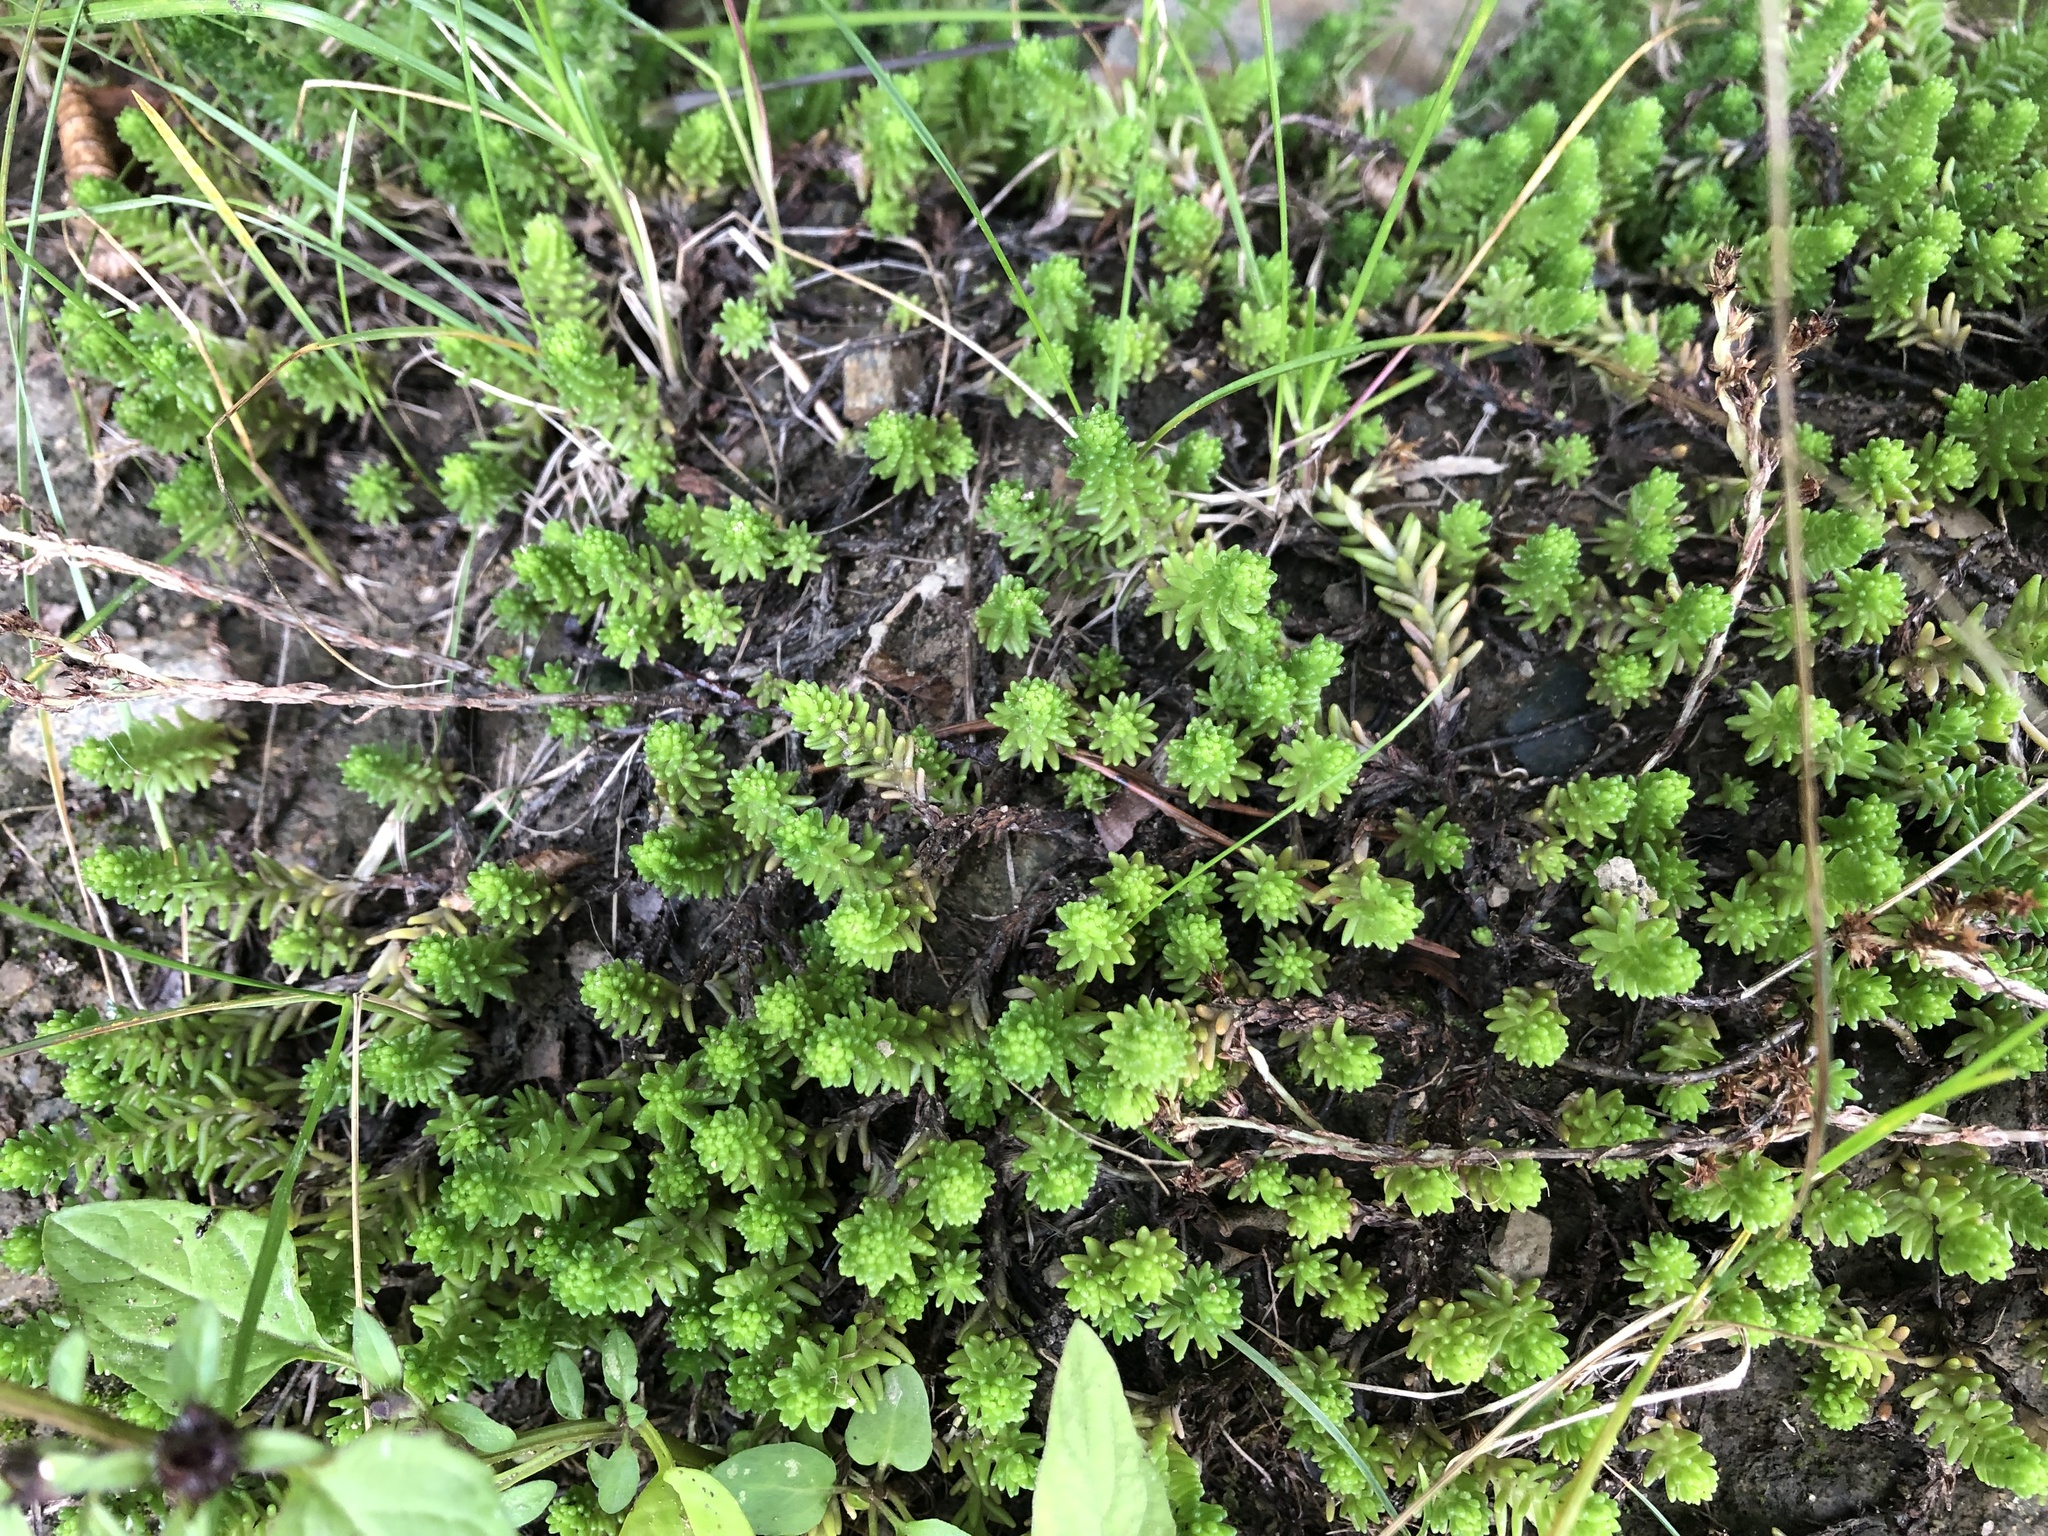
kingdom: Plantae
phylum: Tracheophyta
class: Magnoliopsida
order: Saxifragales
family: Crassulaceae
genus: Sedum
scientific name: Sedum sexangulare
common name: Tasteless stonecrop
